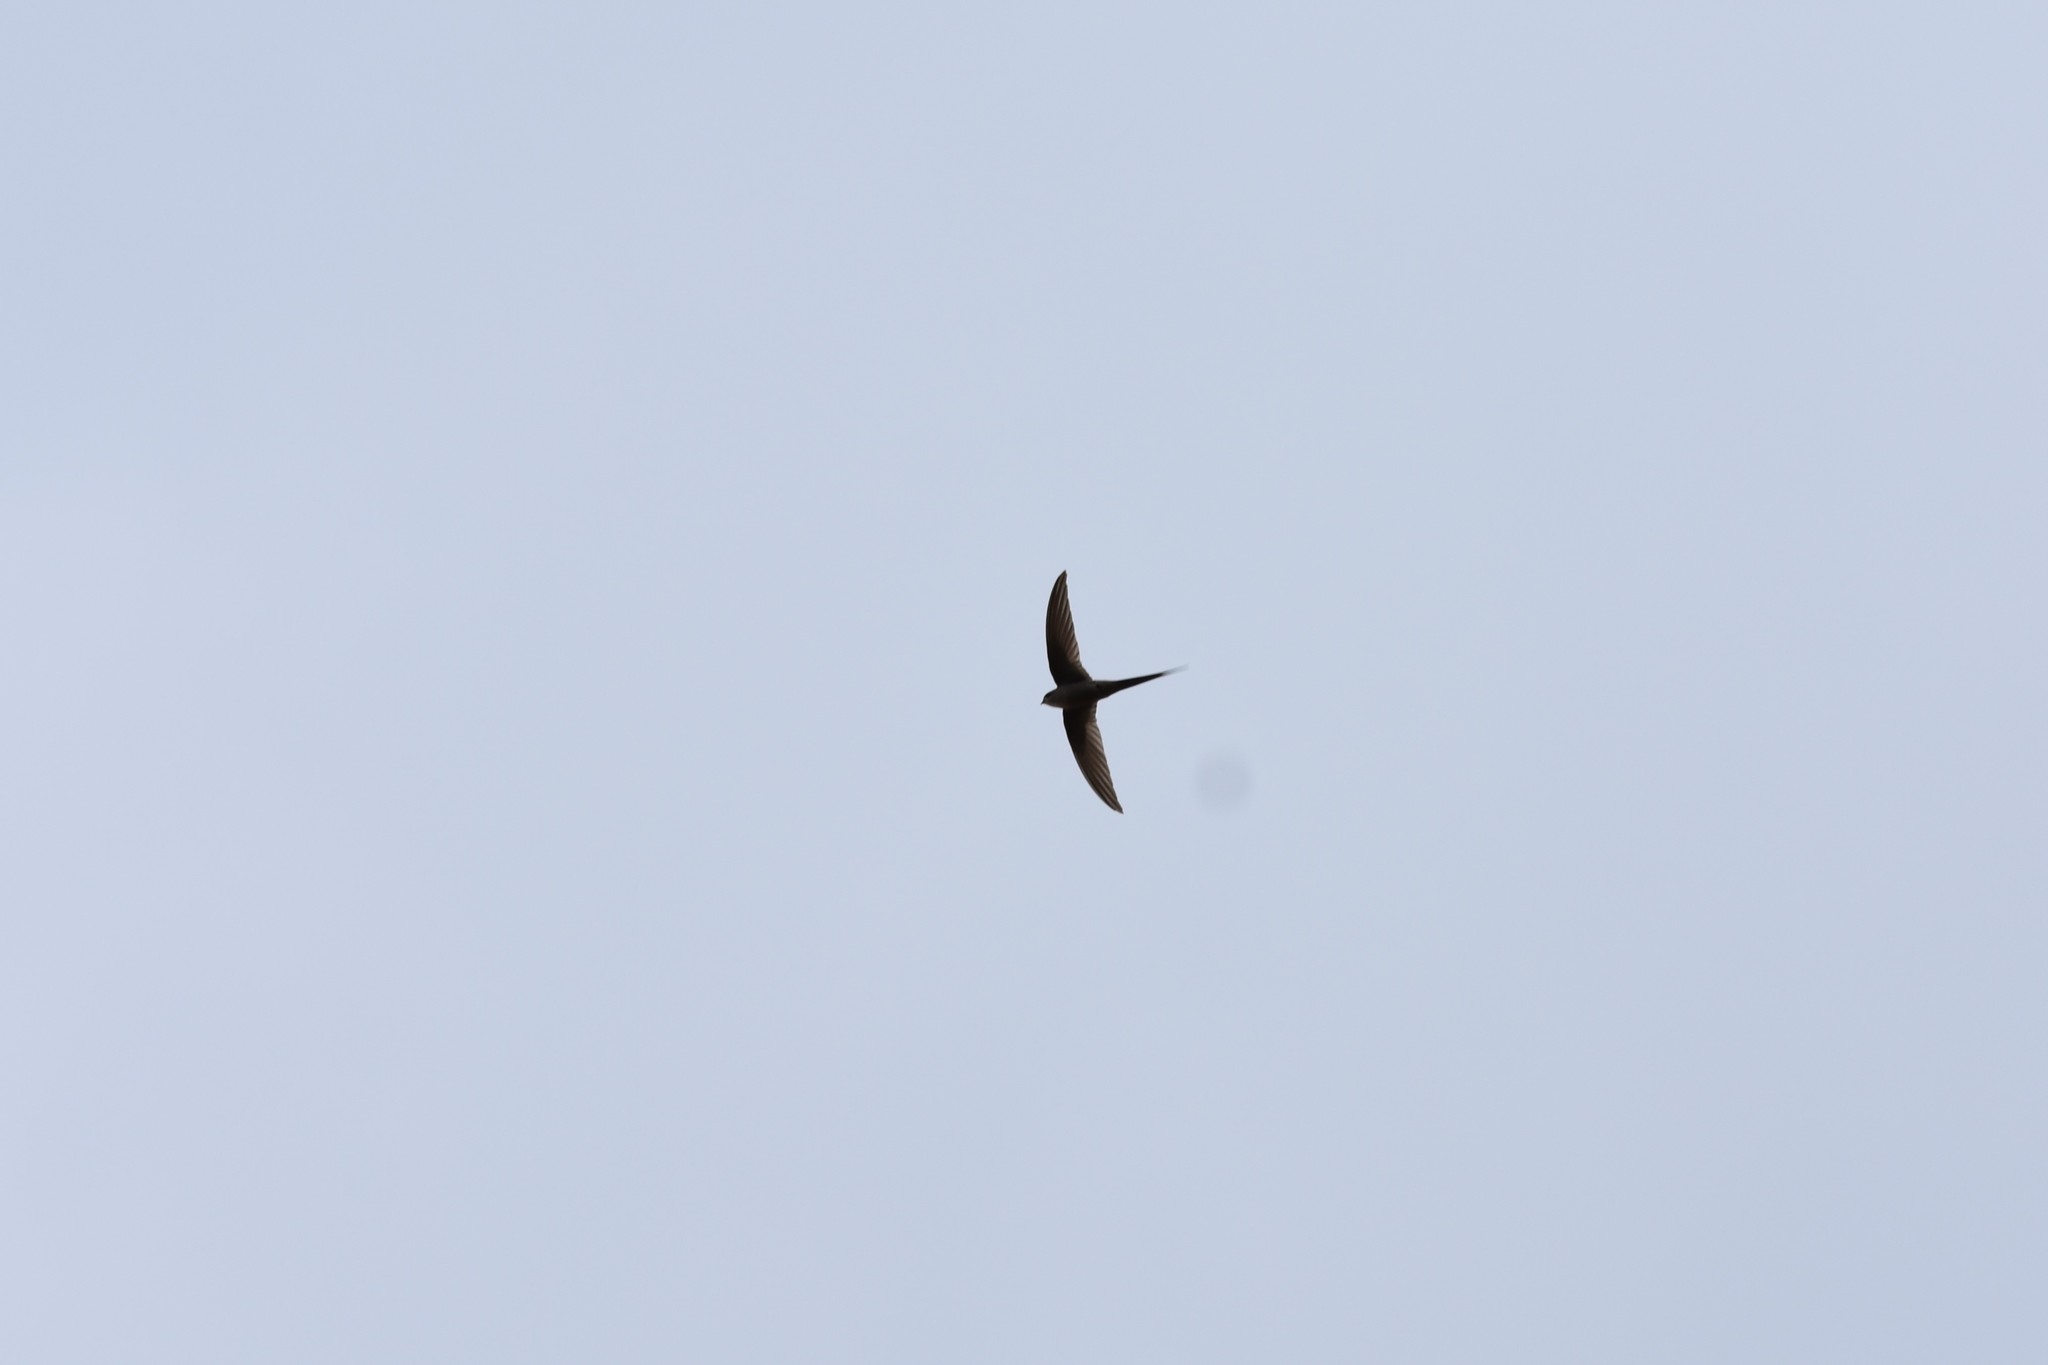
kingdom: Animalia
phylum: Chordata
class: Aves
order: Apodiformes
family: Apodidae
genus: Cypsiurus
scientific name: Cypsiurus parvus
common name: African palm swift
